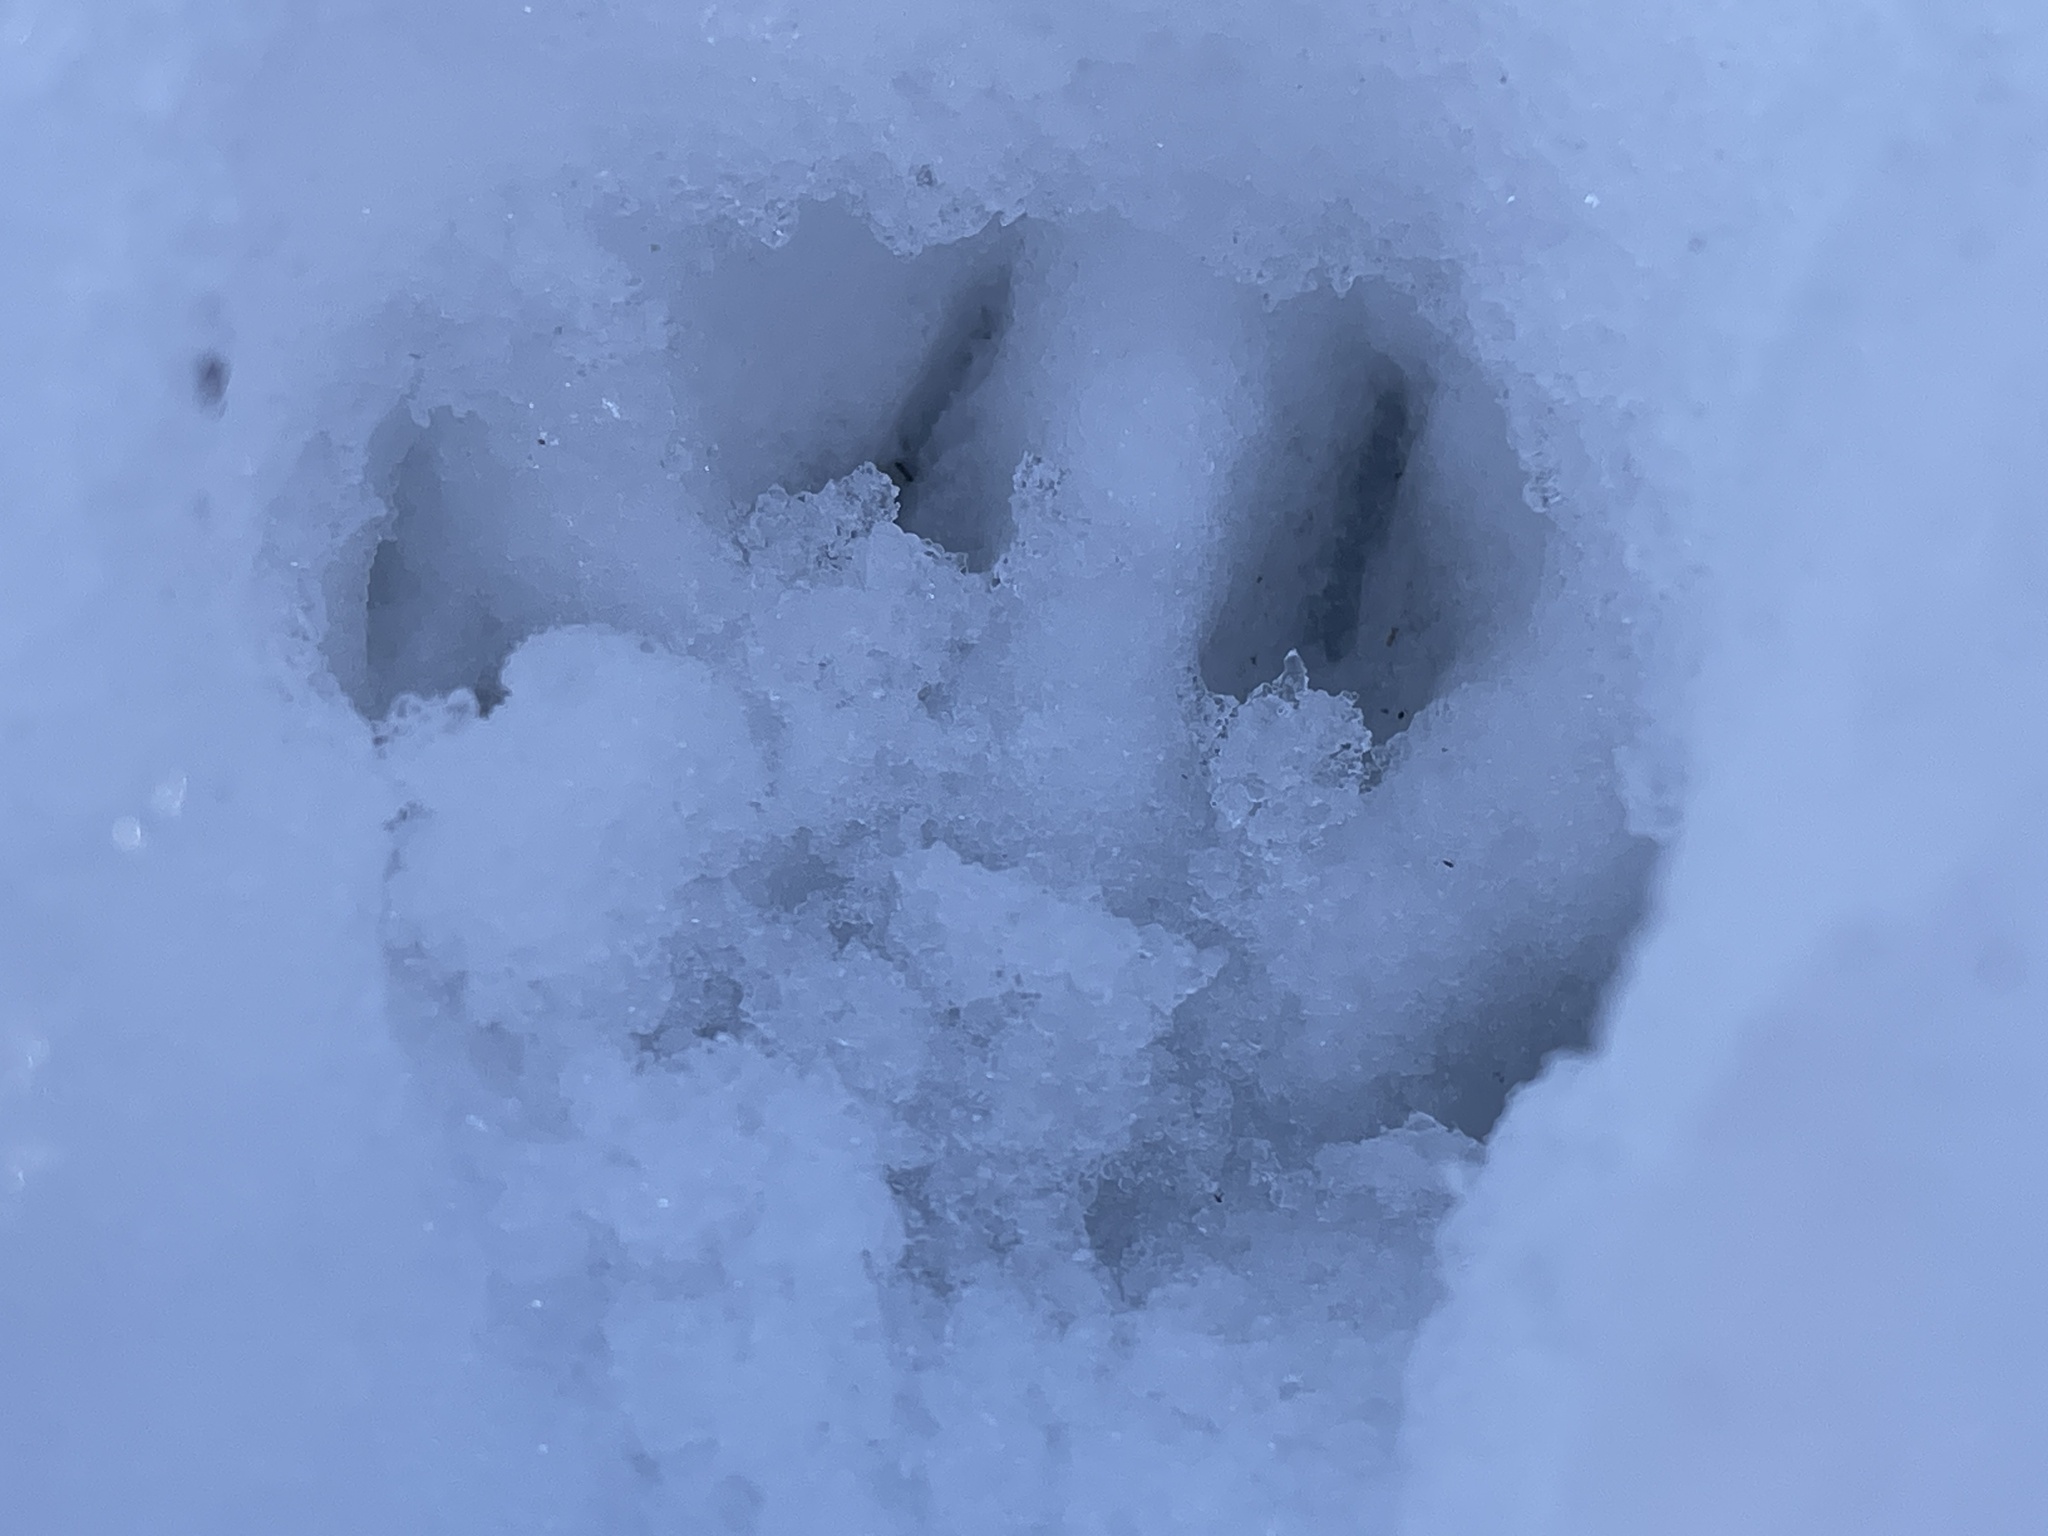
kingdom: Animalia
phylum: Chordata
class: Mammalia
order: Carnivora
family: Felidae
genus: Lynx
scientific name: Lynx rufus
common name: Bobcat
